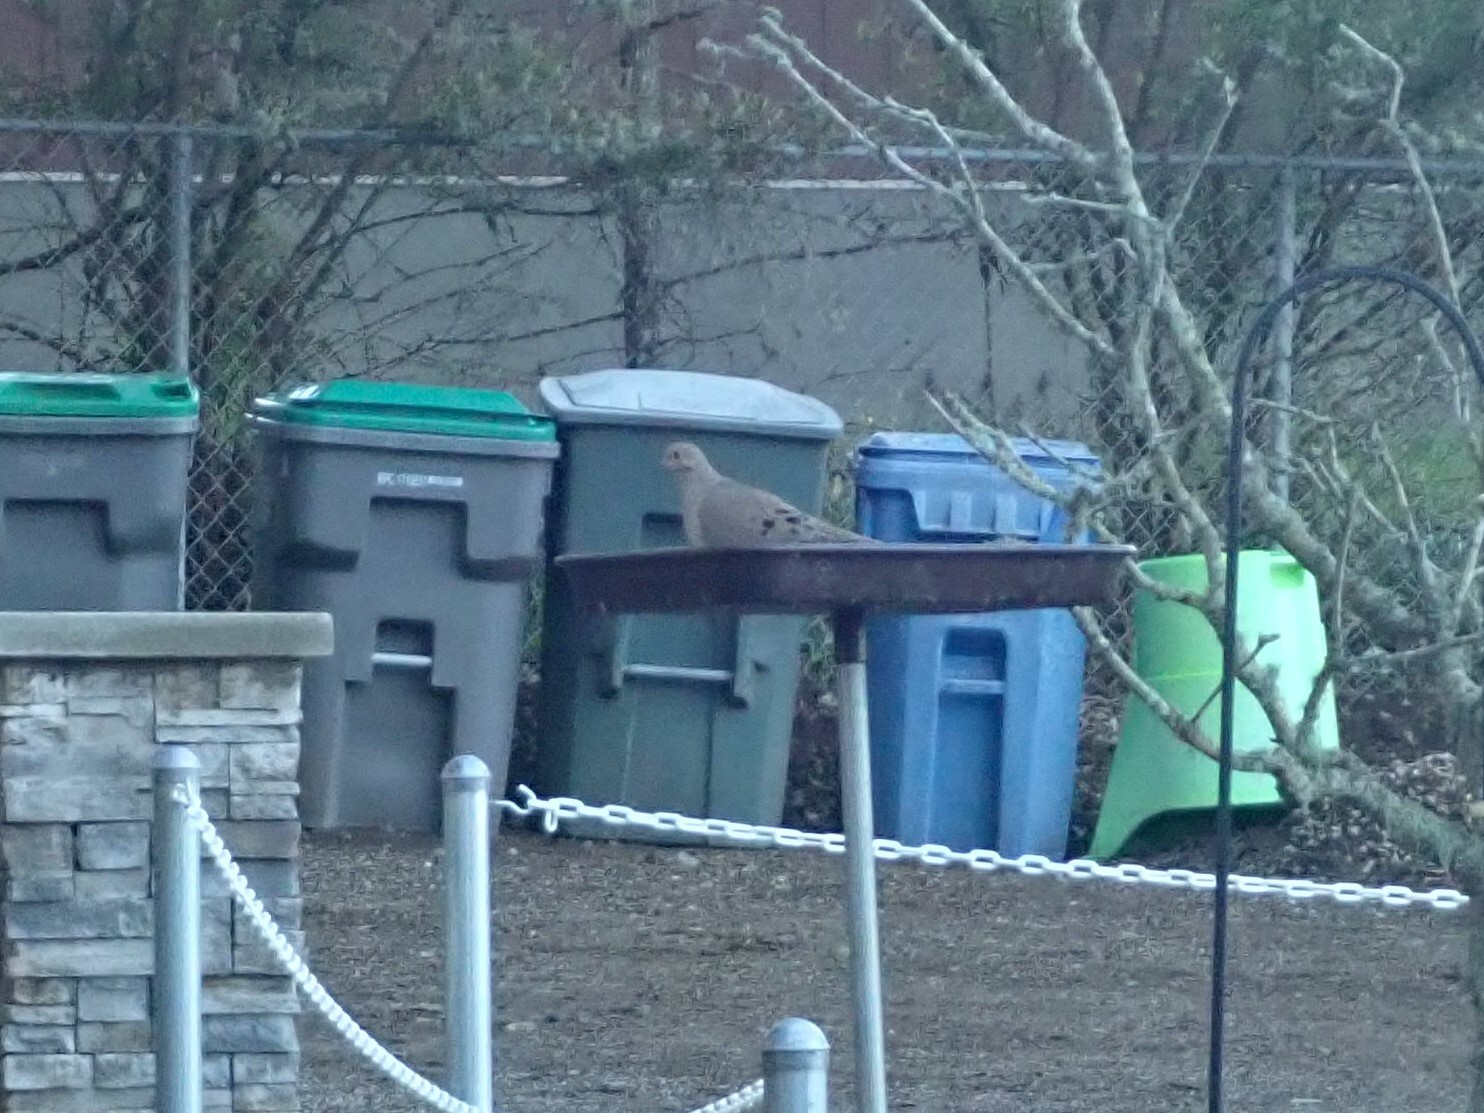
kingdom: Animalia
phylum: Chordata
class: Aves
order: Columbiformes
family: Columbidae
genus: Zenaida
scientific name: Zenaida macroura
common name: Mourning dove
